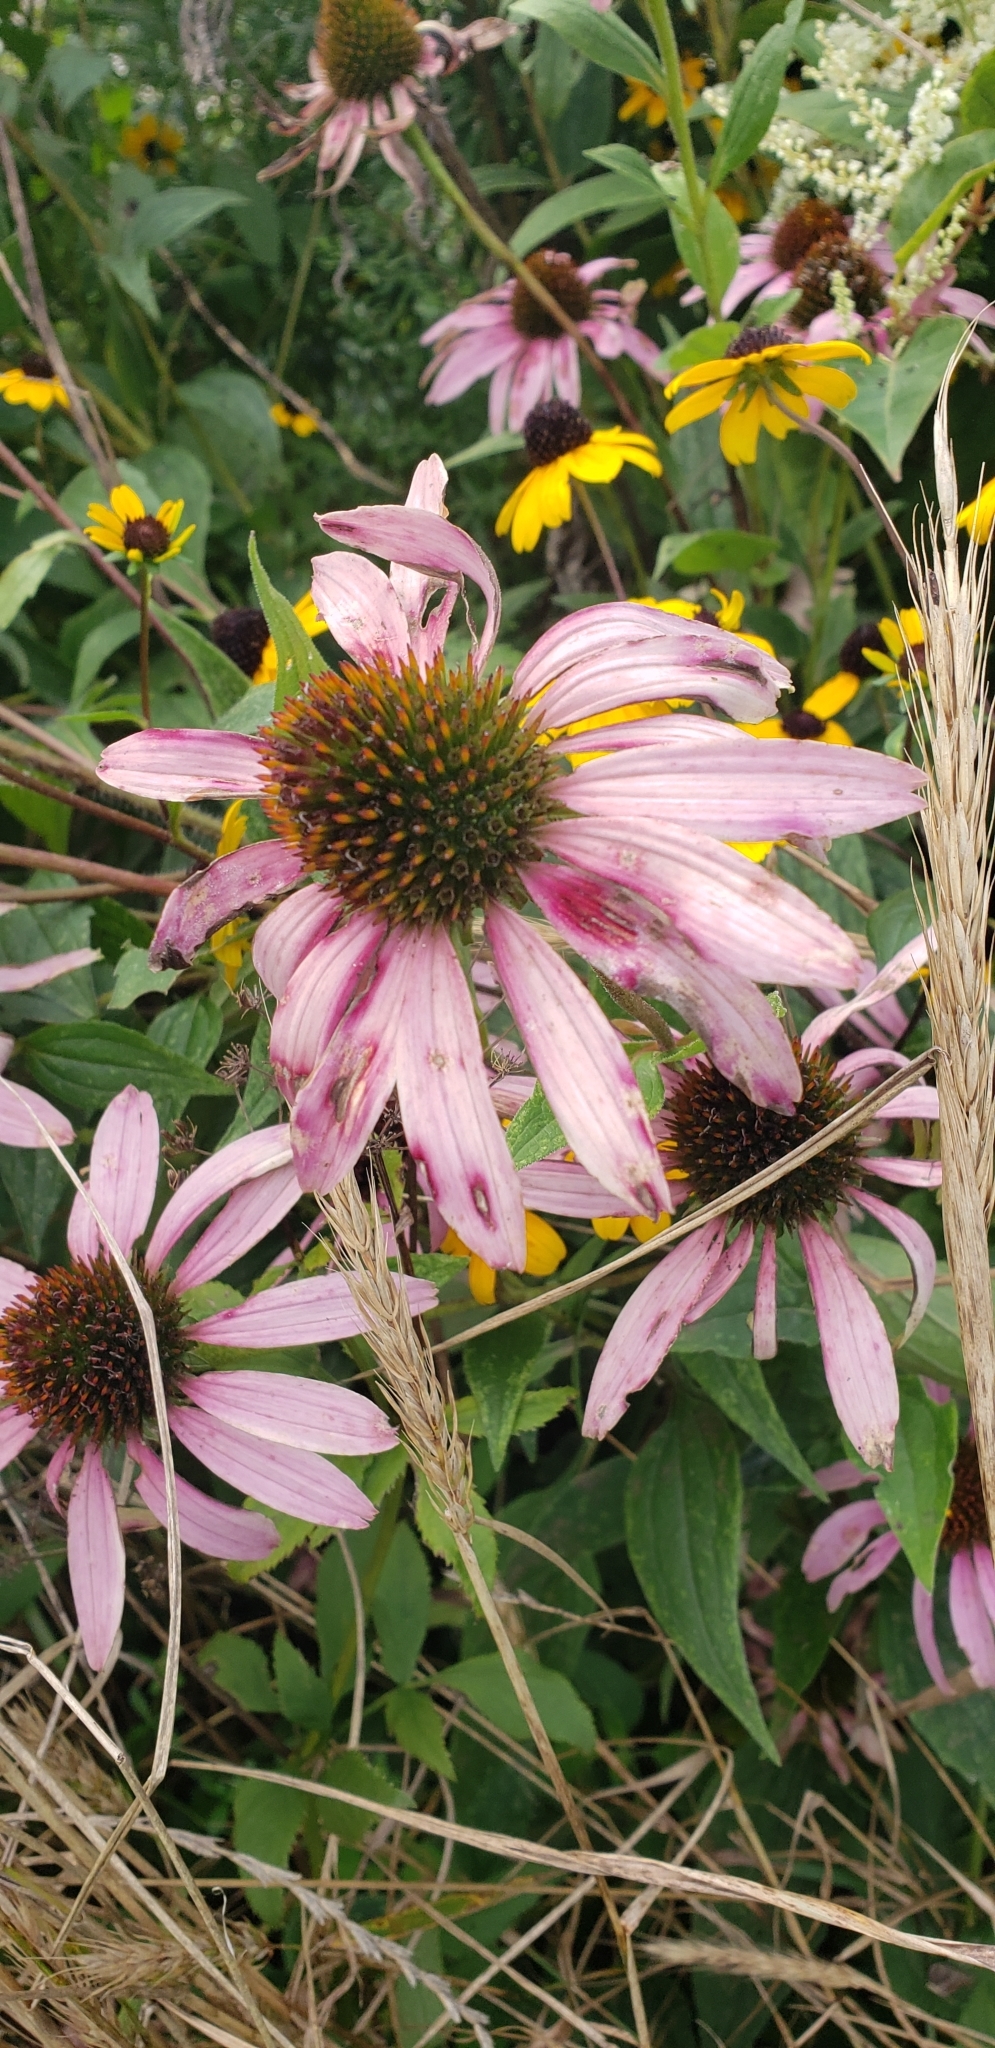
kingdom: Plantae
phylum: Tracheophyta
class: Magnoliopsida
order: Asterales
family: Asteraceae
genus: Echinacea
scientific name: Echinacea purpurea
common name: Broad-leaved purple coneflower
